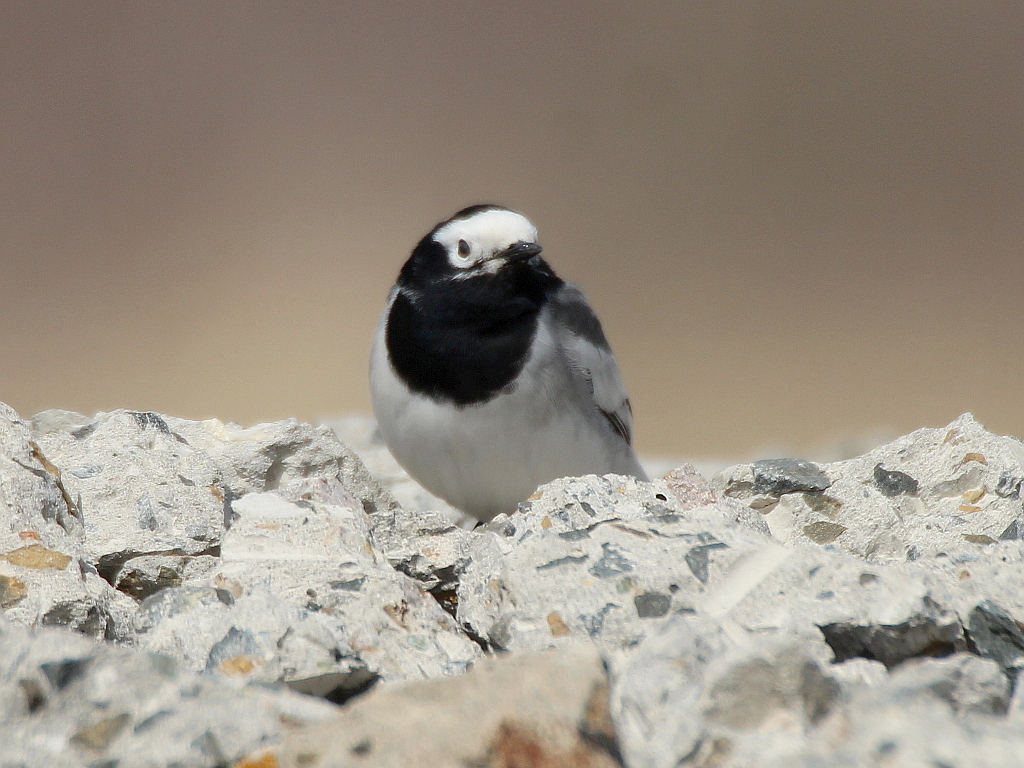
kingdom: Animalia
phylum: Chordata
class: Aves
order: Passeriformes
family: Motacillidae
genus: Motacilla
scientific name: Motacilla alba
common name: White wagtail
